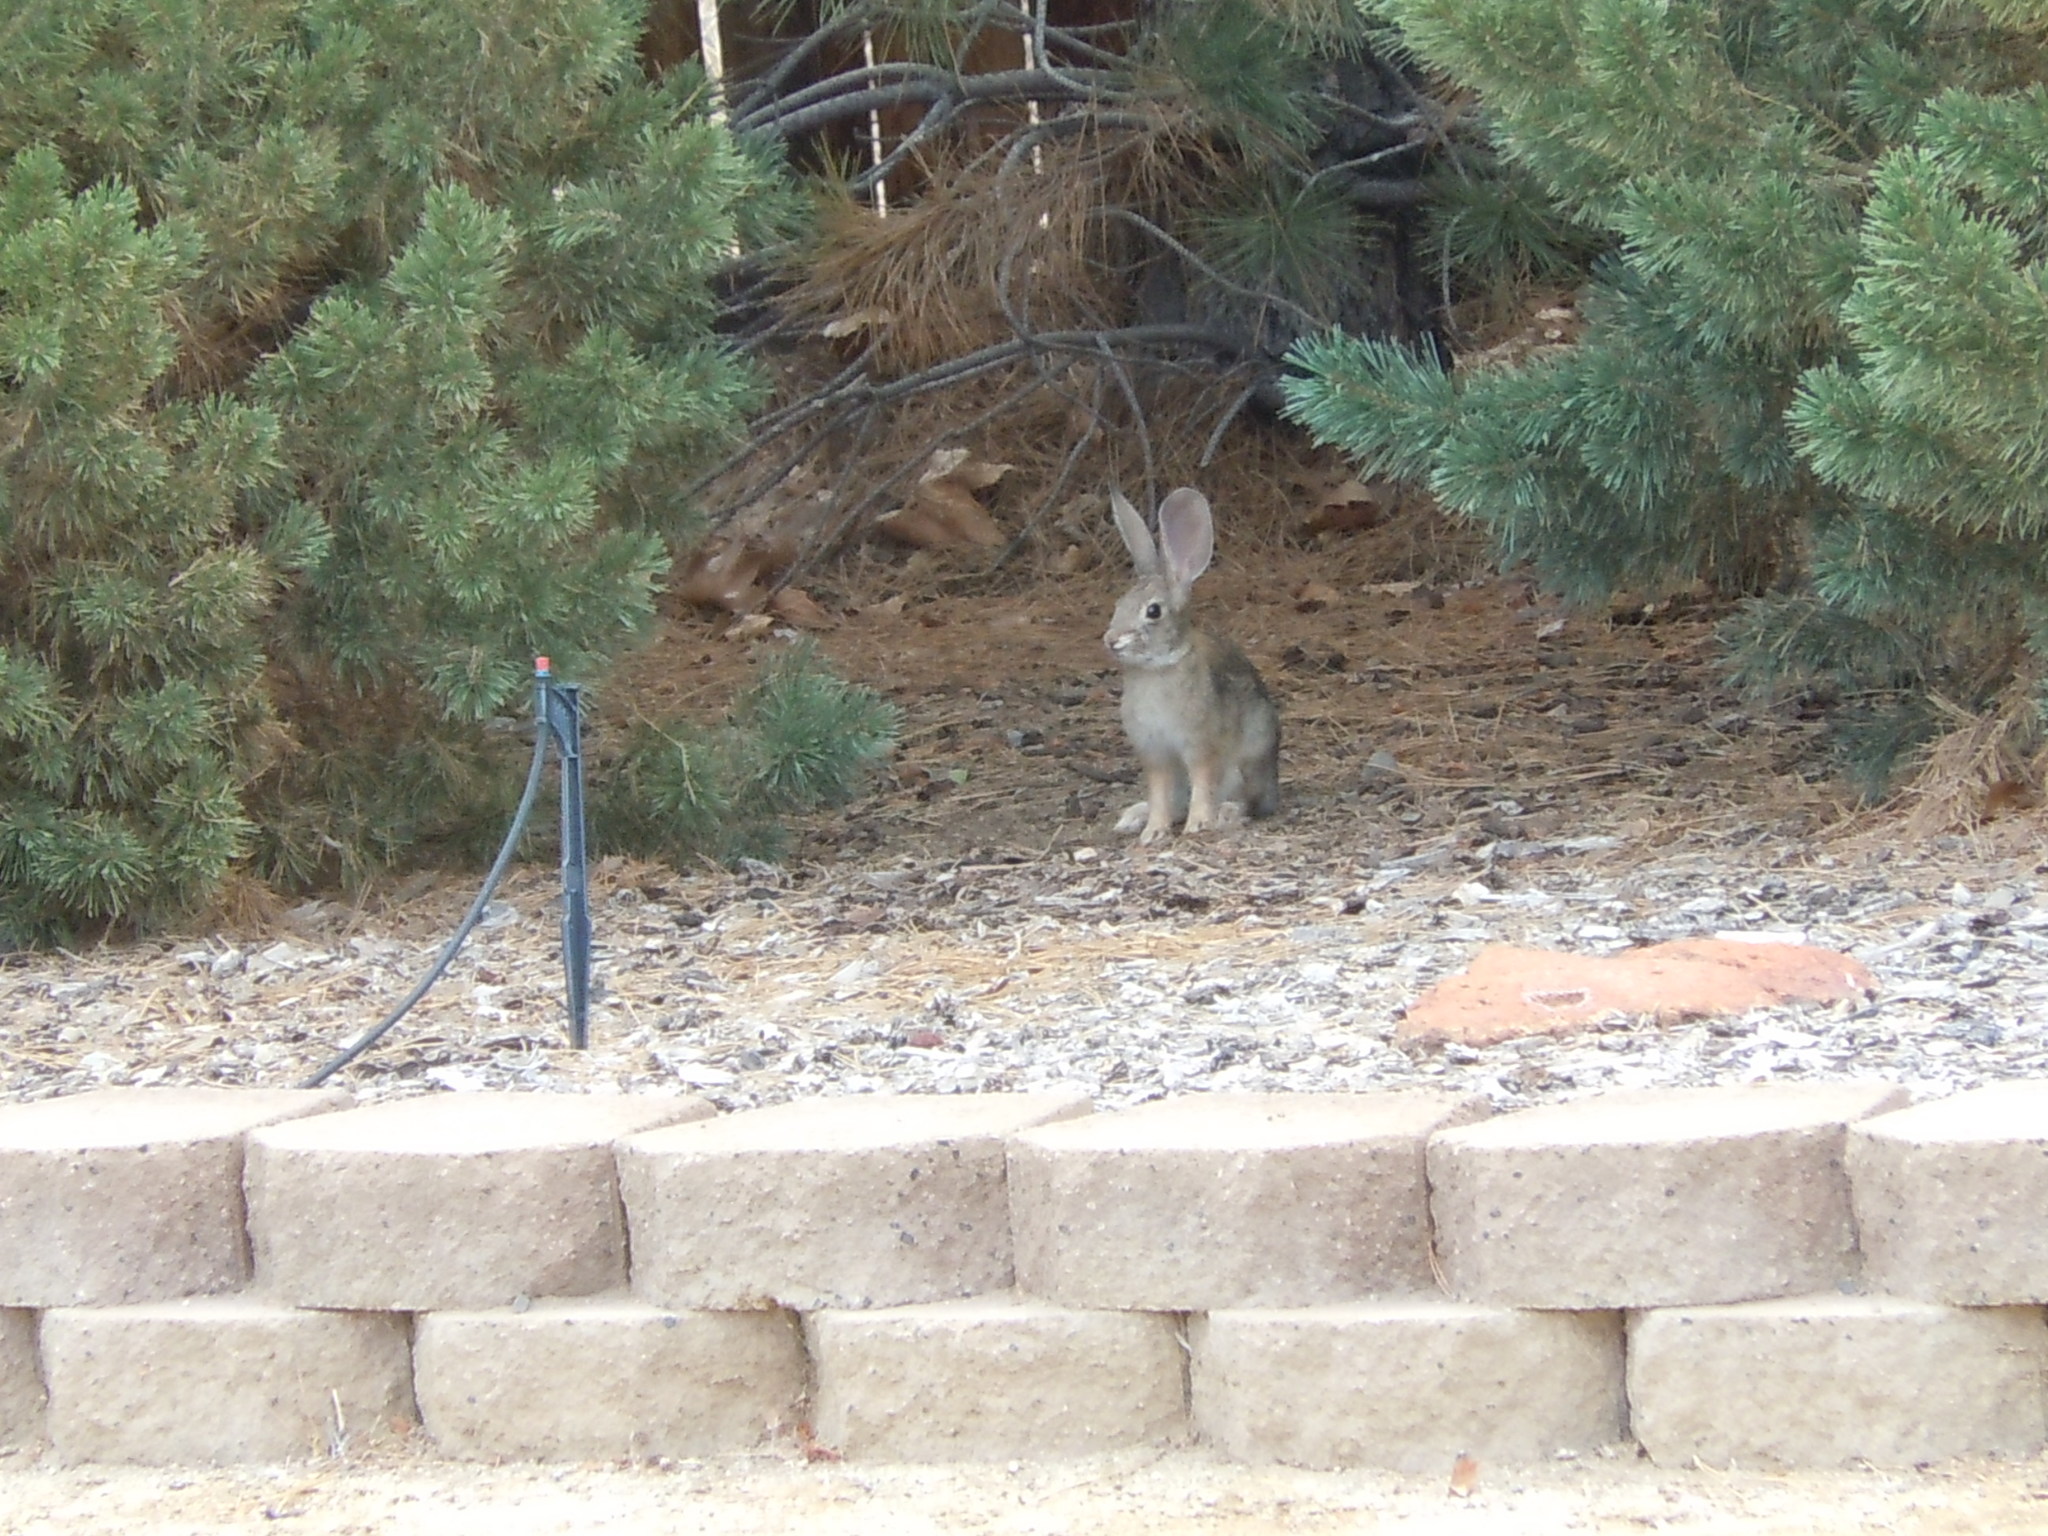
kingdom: Animalia
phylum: Chordata
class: Mammalia
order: Lagomorpha
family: Leporidae
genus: Sylvilagus
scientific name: Sylvilagus audubonii
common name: Desert cottontail
